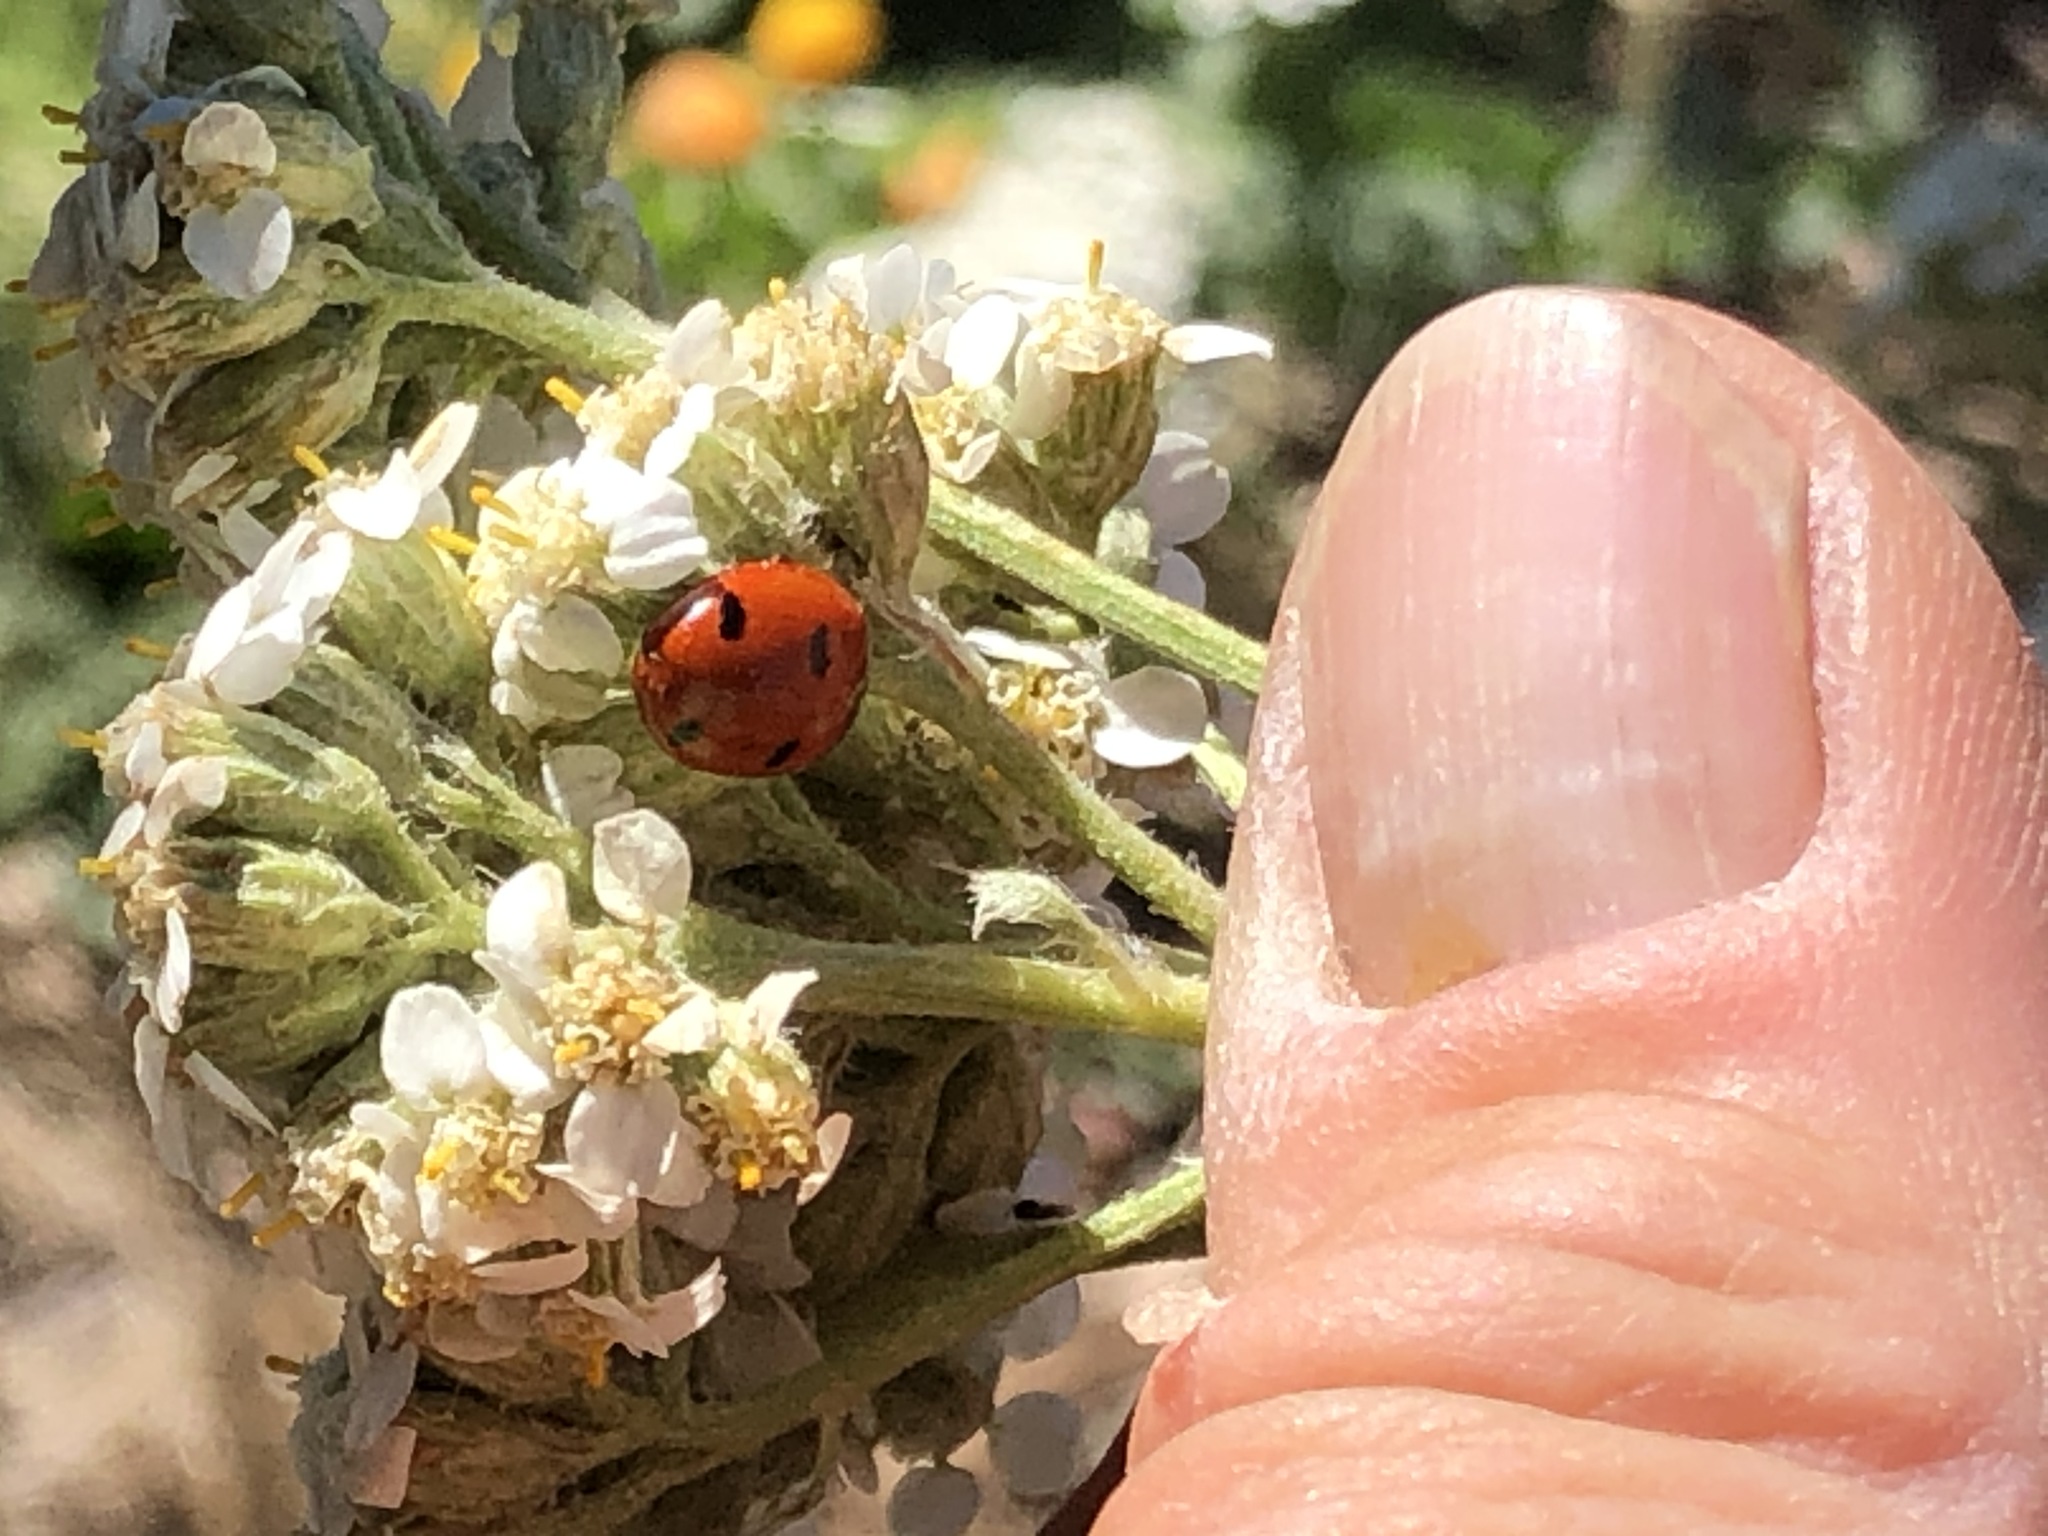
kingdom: Animalia
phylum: Arthropoda
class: Insecta
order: Coleoptera
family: Coccinellidae
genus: Coccinella
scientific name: Coccinella septempunctata
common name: Sevenspotted lady beetle
